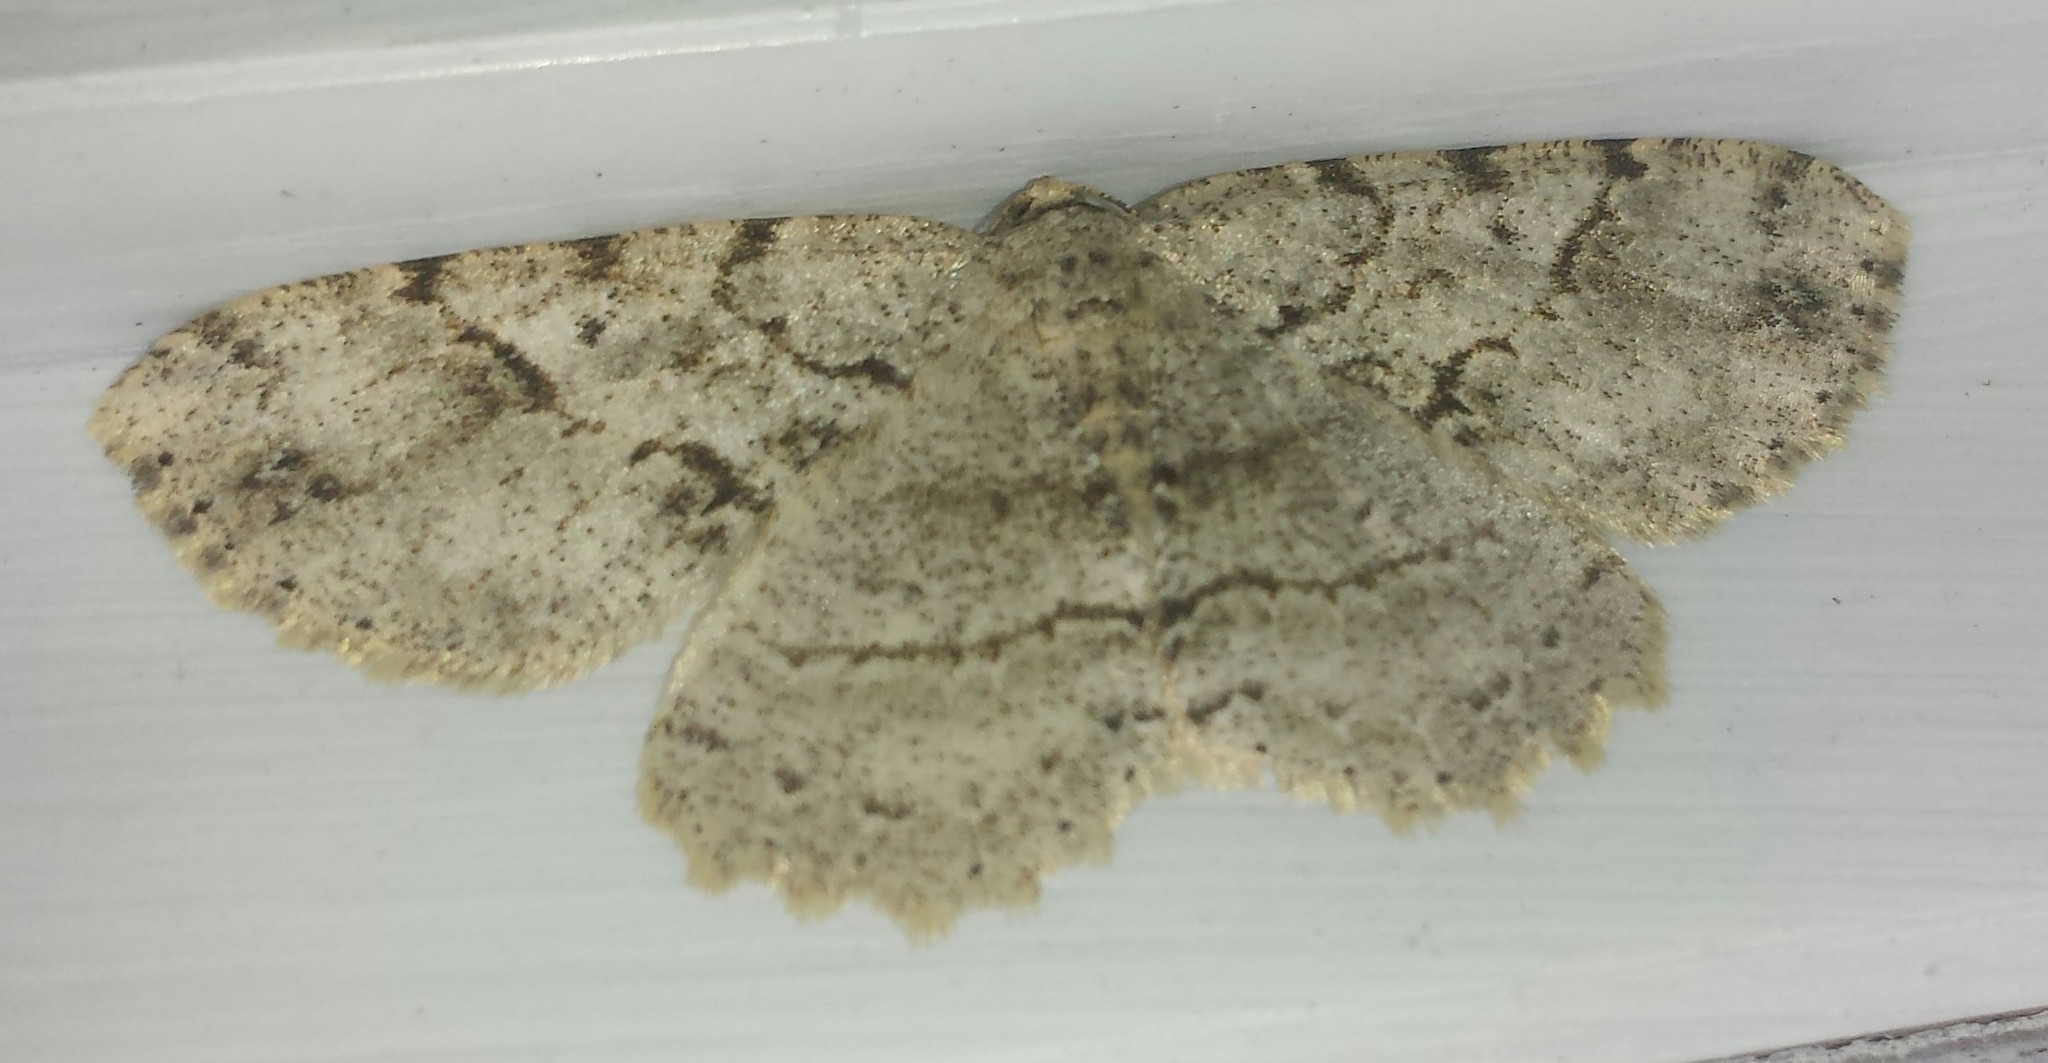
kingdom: Animalia
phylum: Arthropoda
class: Insecta
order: Lepidoptera
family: Geometridae
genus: Melanolophia
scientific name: Melanolophia signataria
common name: Signate melanolophia
